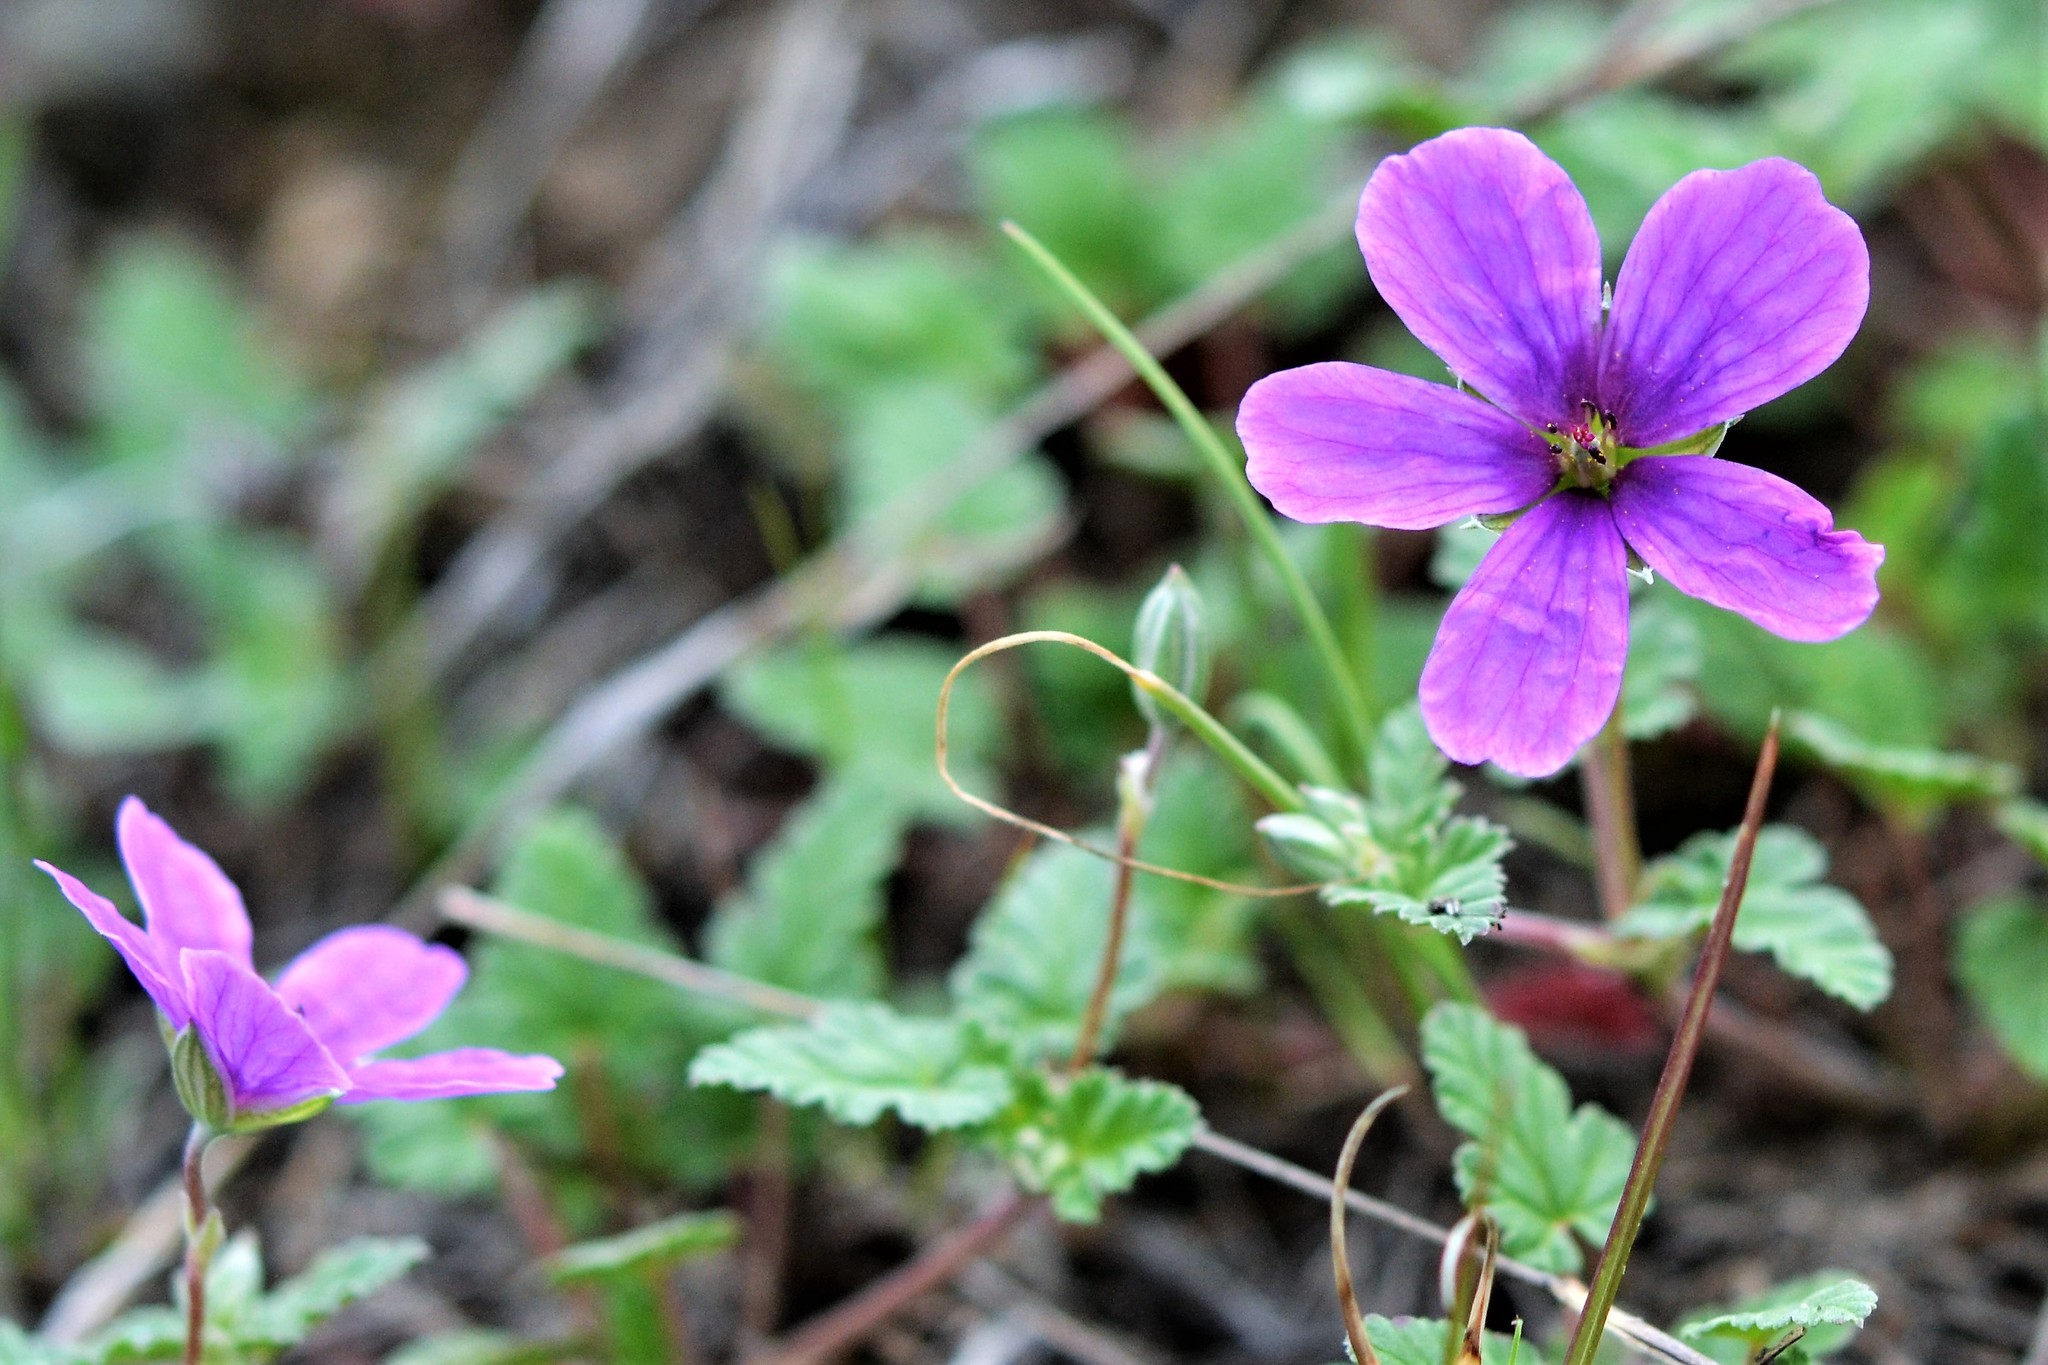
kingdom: Plantae
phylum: Tracheophyta
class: Magnoliopsida
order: Geraniales
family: Geraniaceae
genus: Erodium
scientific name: Erodium texanum
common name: Texas stork's-bill
